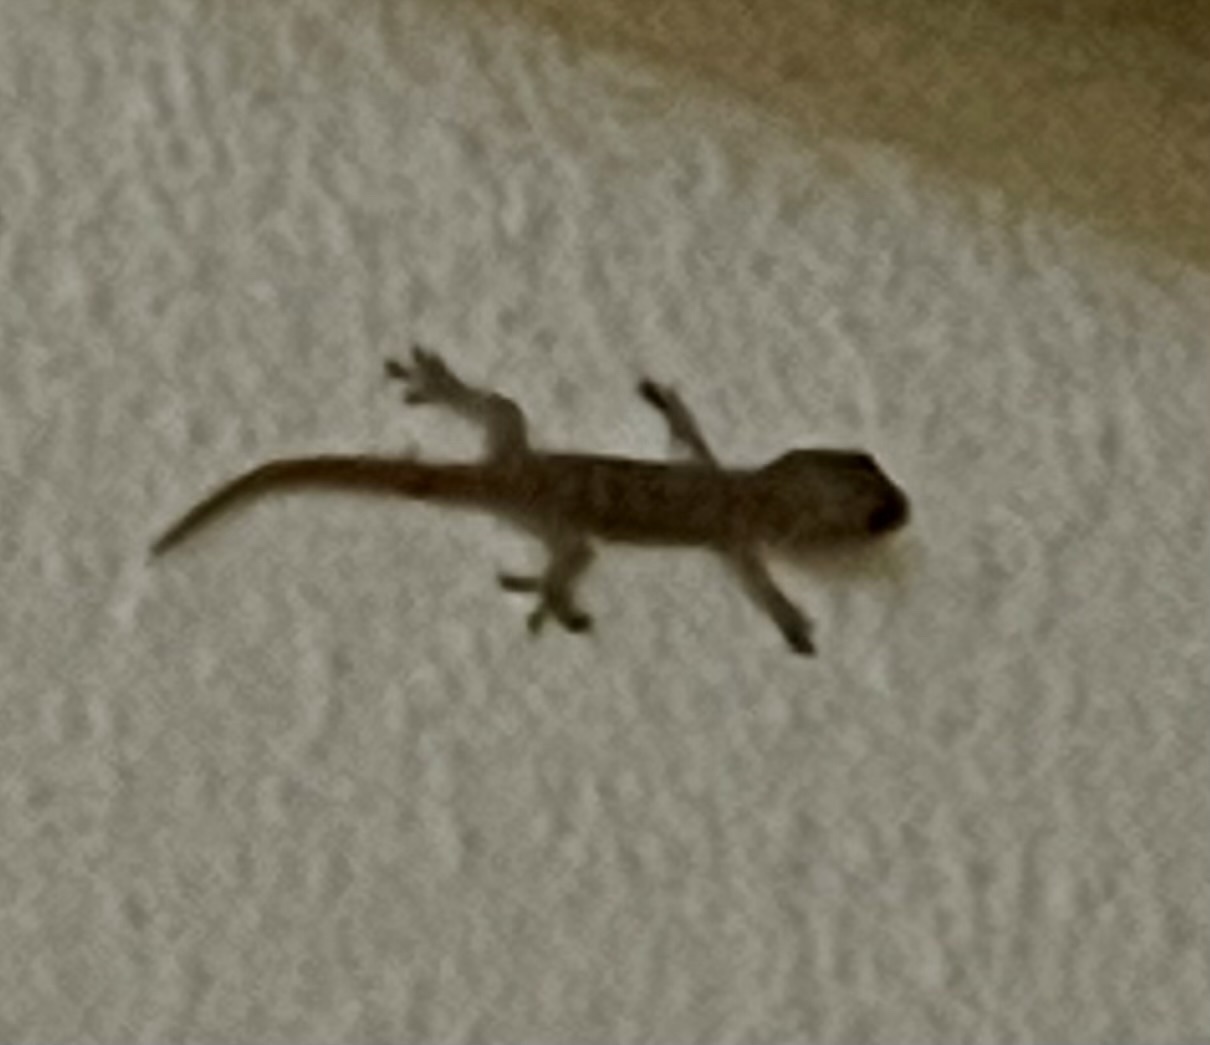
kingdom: Animalia
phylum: Chordata
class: Squamata
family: Gekkonidae
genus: Hemidactylus
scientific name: Hemidactylus frenatus
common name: Common house gecko
